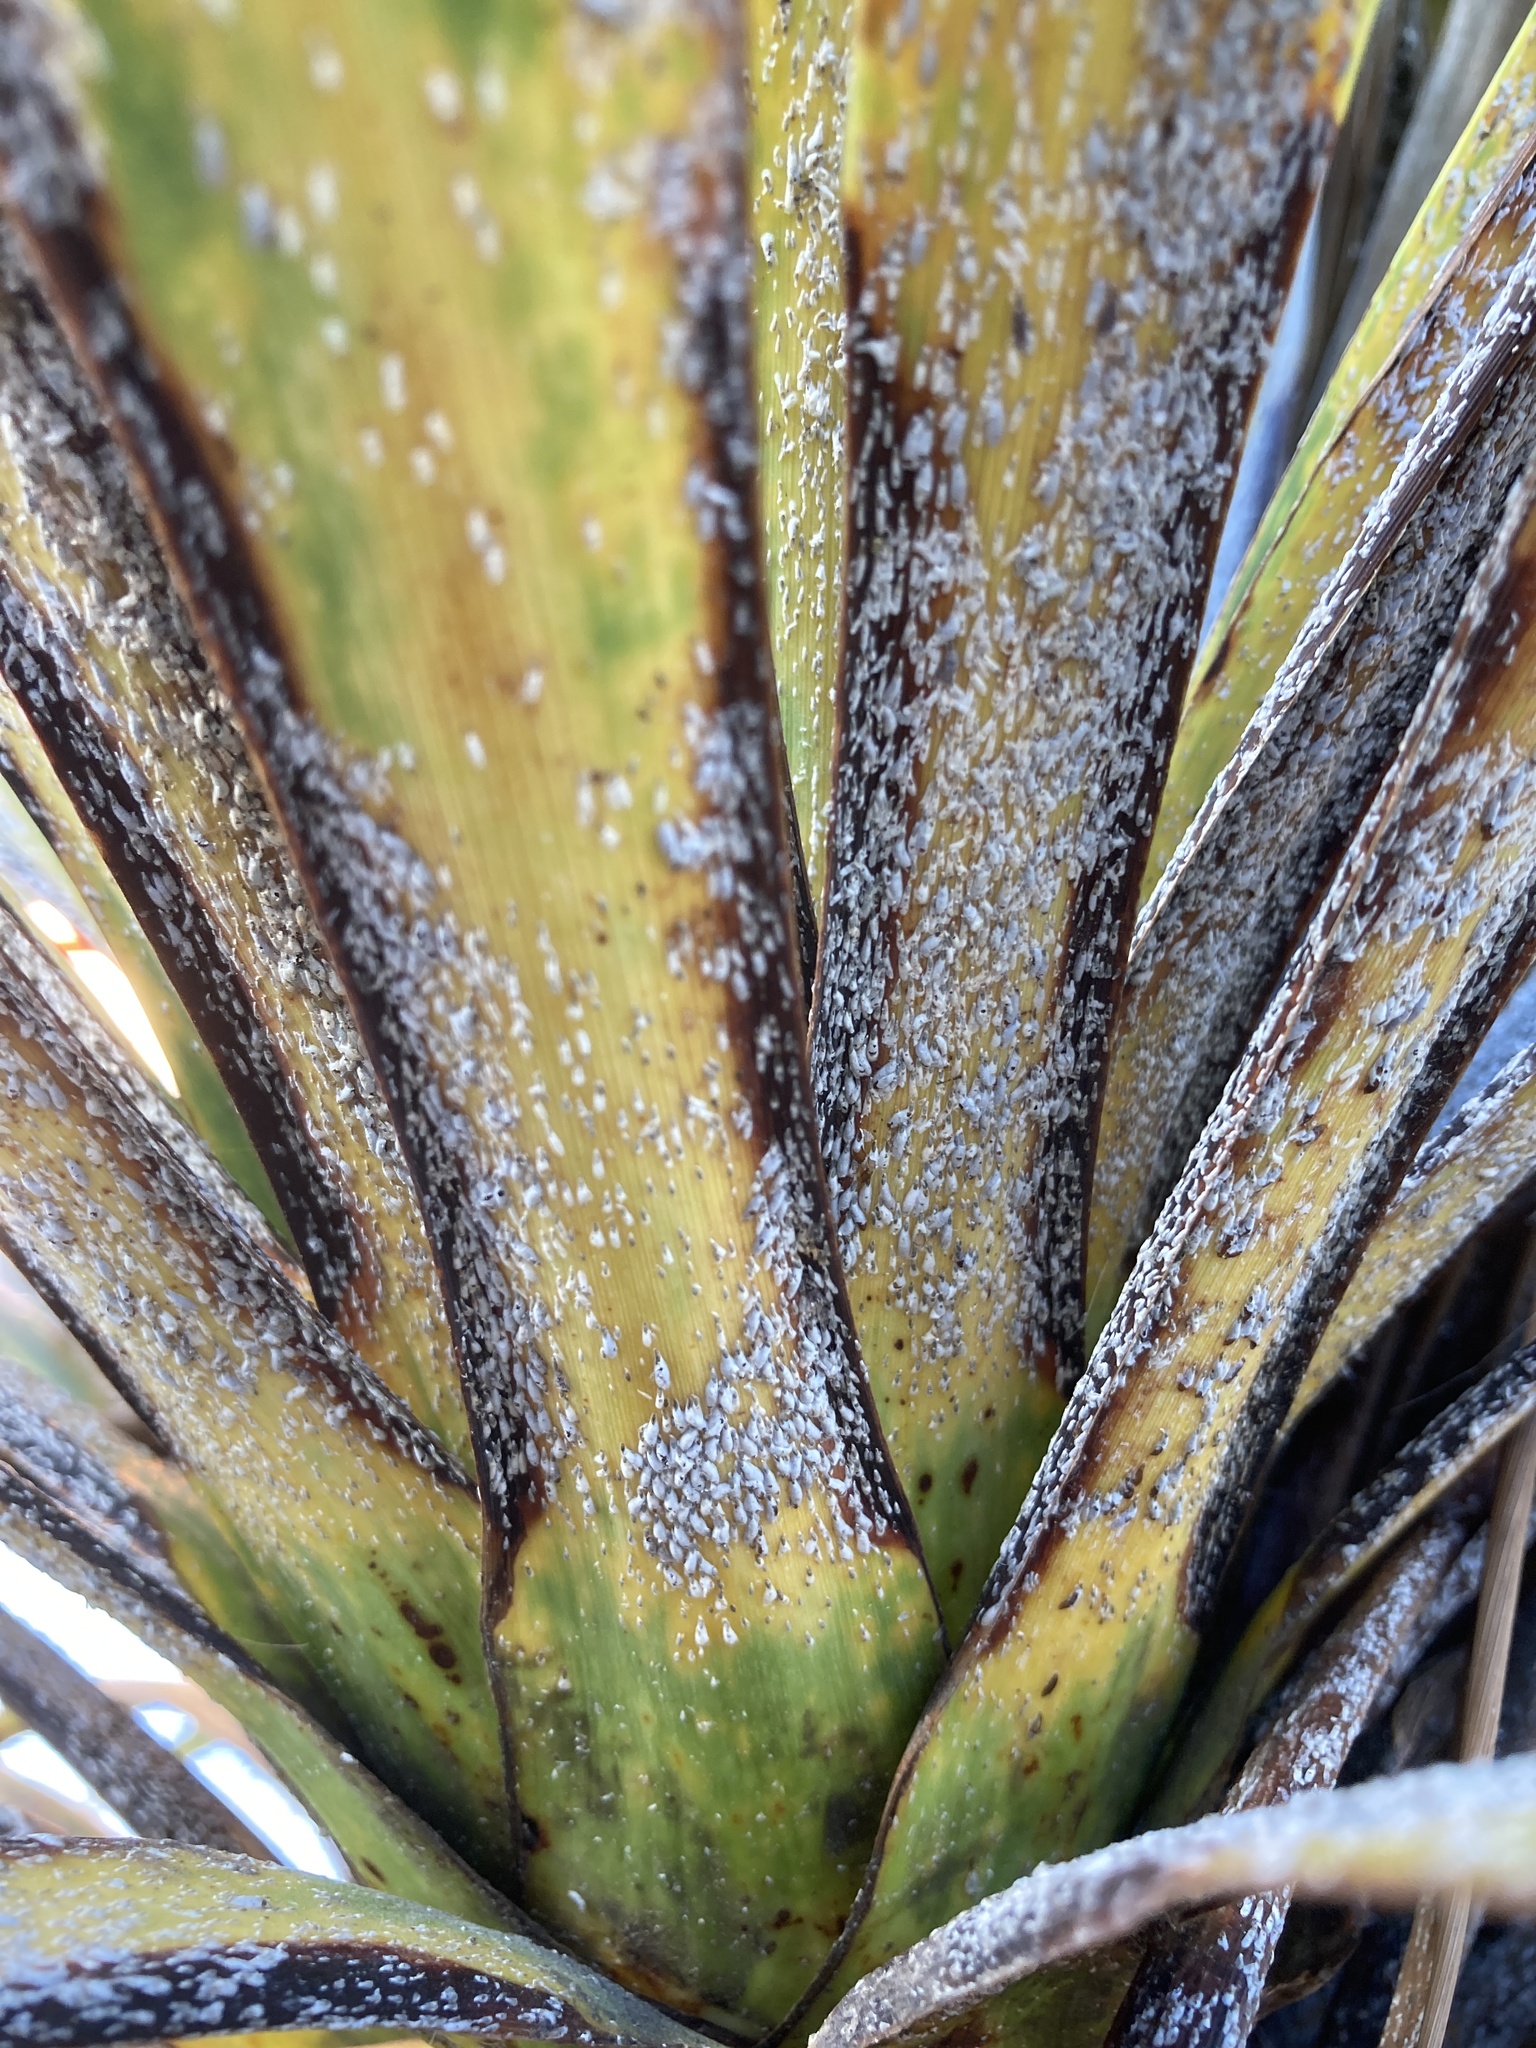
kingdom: Animalia
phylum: Arthropoda
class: Insecta
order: Hemiptera
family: Diaspididae
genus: Leucaspis
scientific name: Leucaspis cordylinidis
